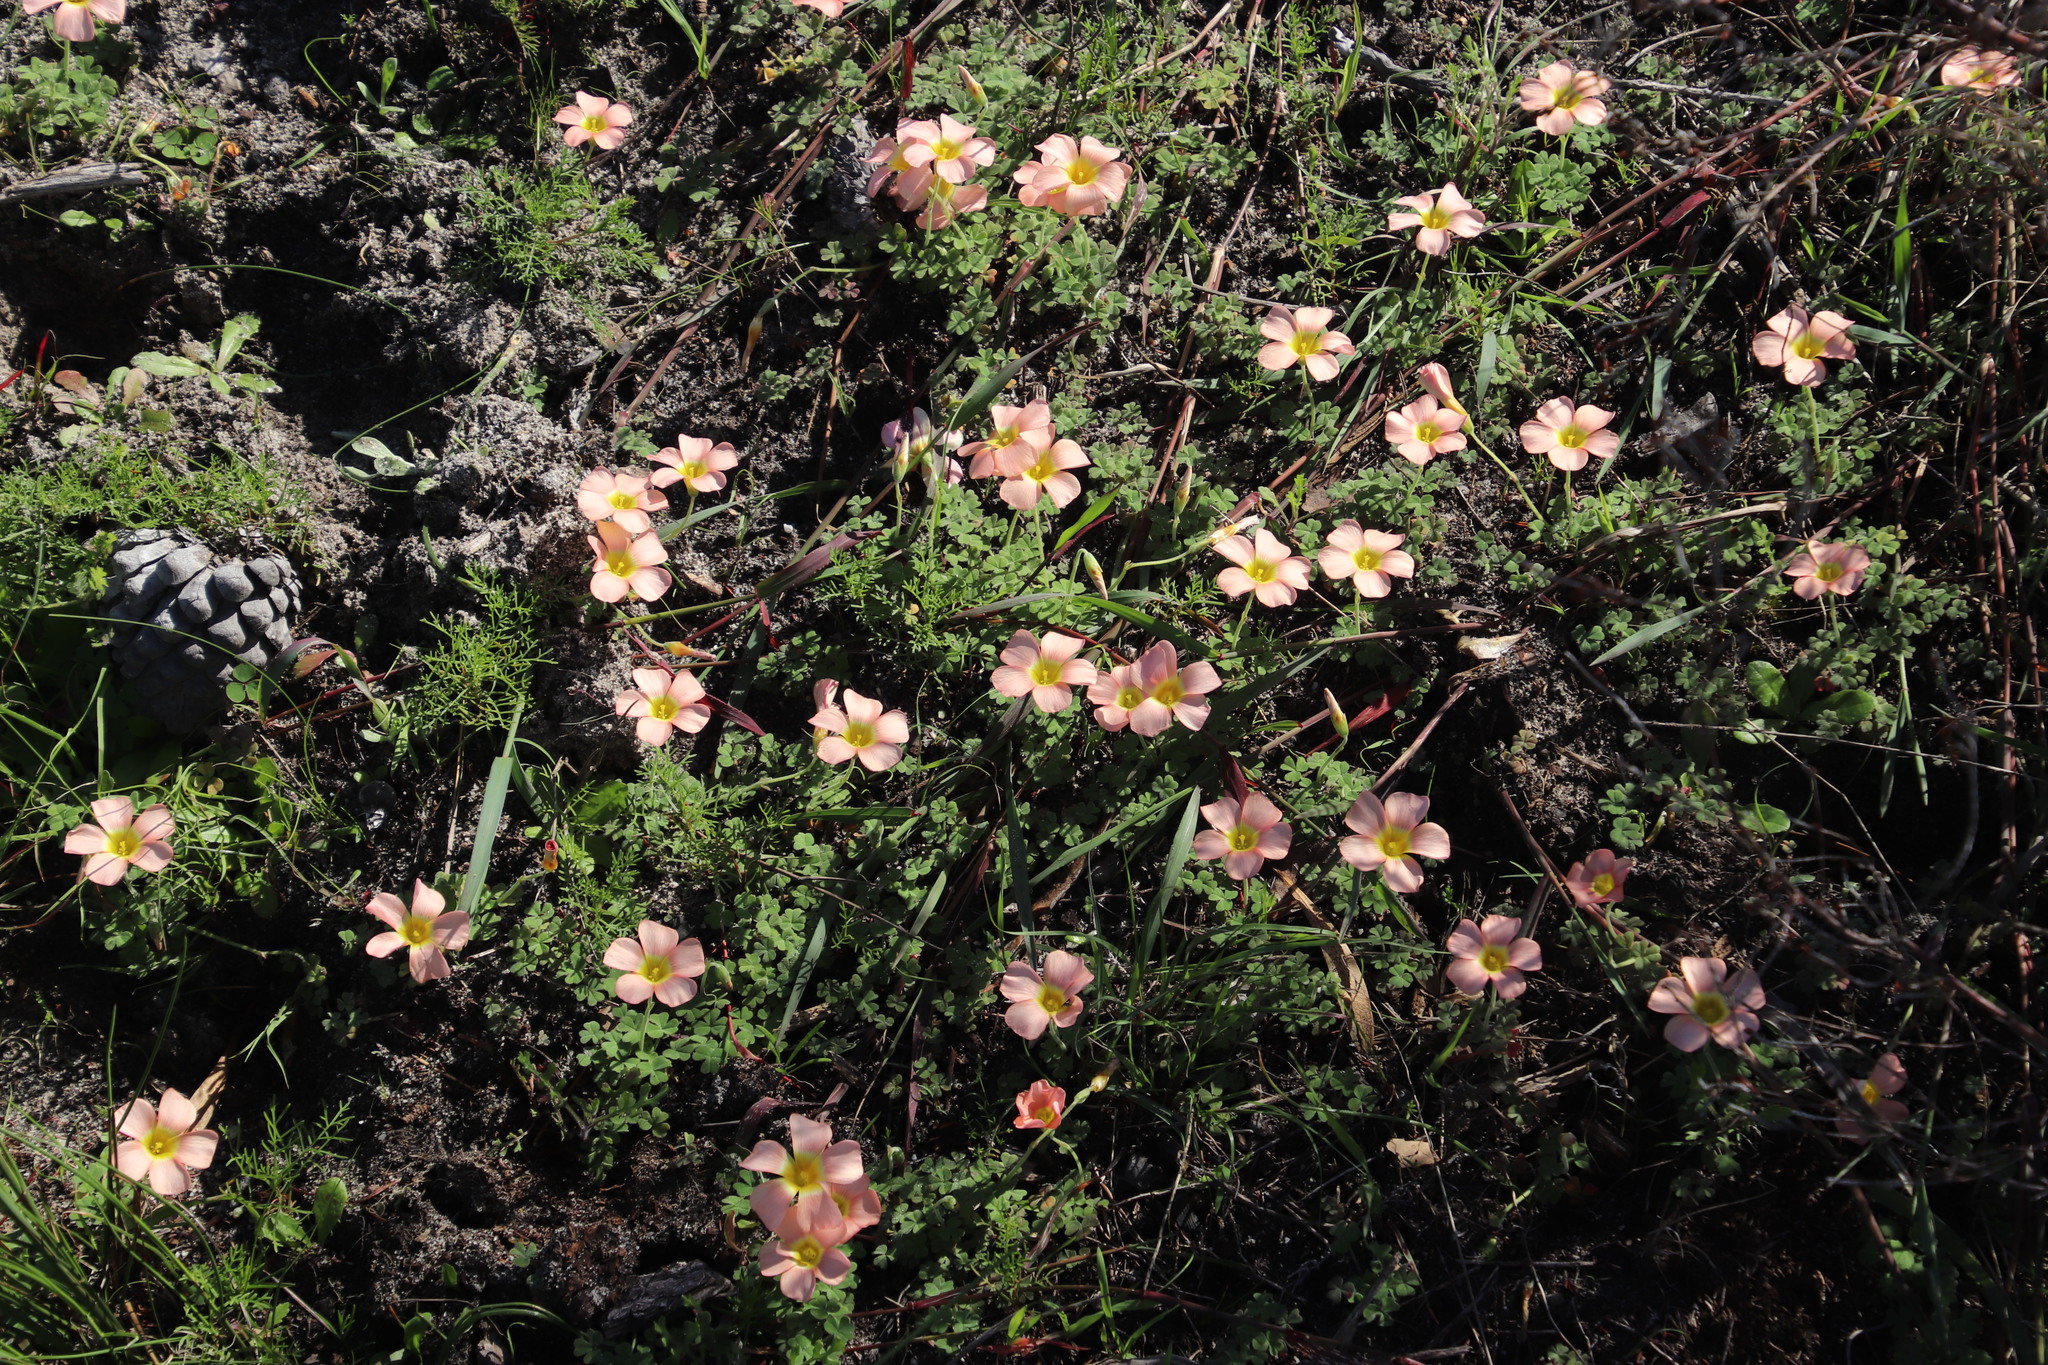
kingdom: Plantae
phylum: Tracheophyta
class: Magnoliopsida
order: Oxalidales
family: Oxalidaceae
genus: Oxalis
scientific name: Oxalis obtusa
